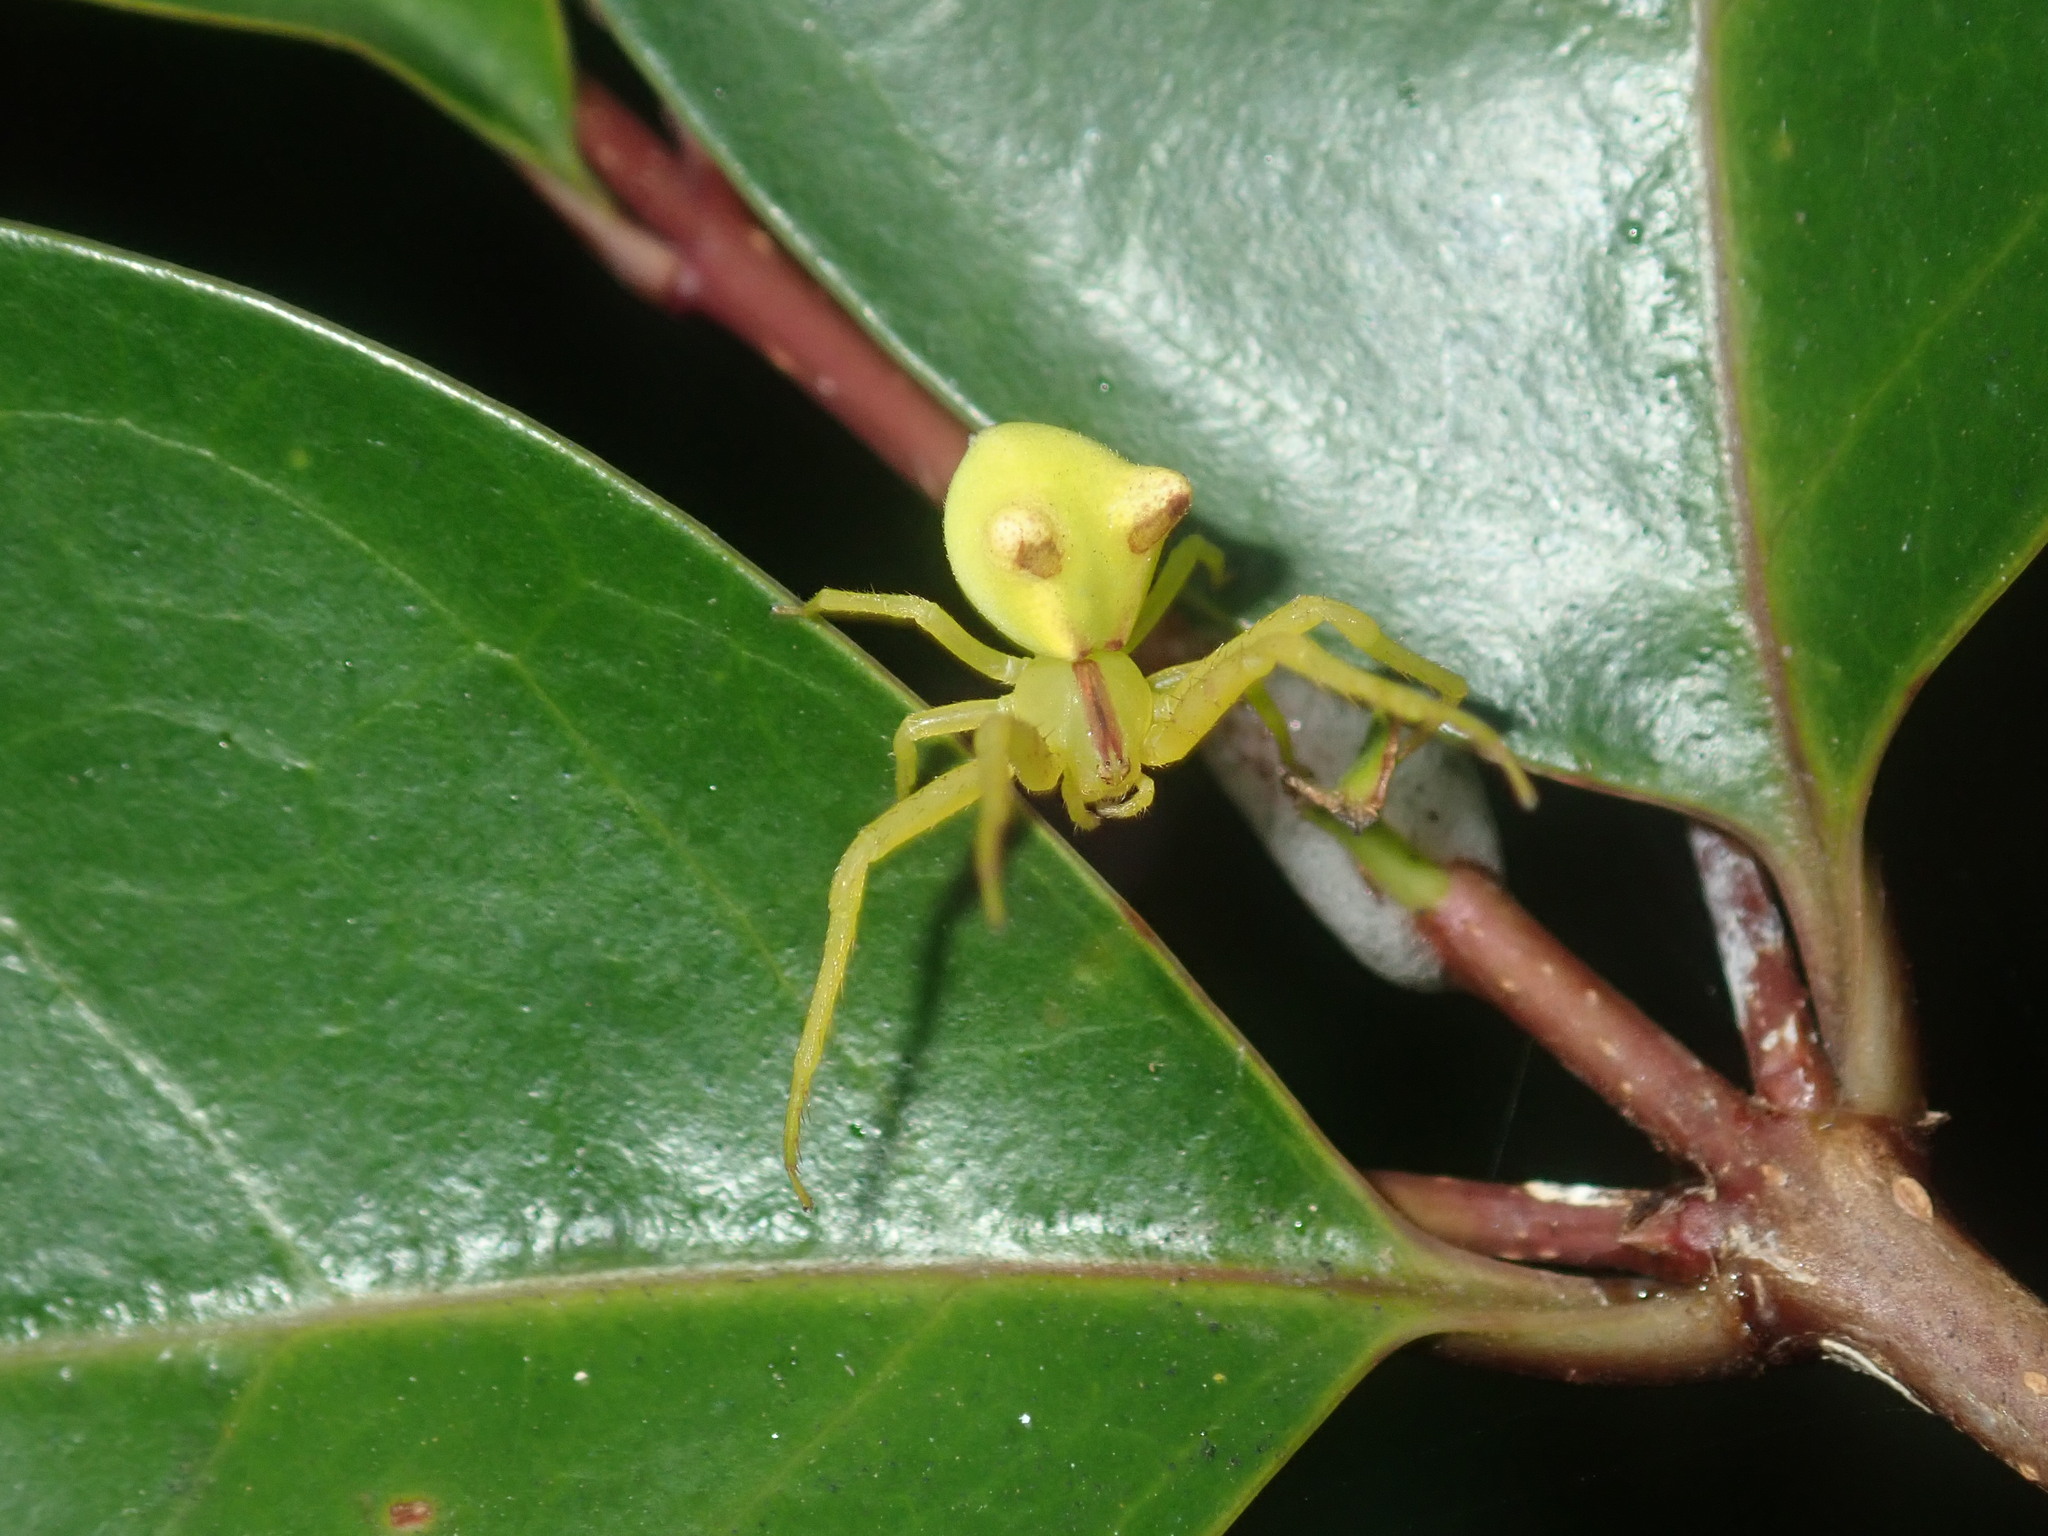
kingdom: Animalia
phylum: Arthropoda
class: Arachnida
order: Araneae
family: Thomisidae
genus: Sidymella
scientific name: Sidymella rubrosignata
